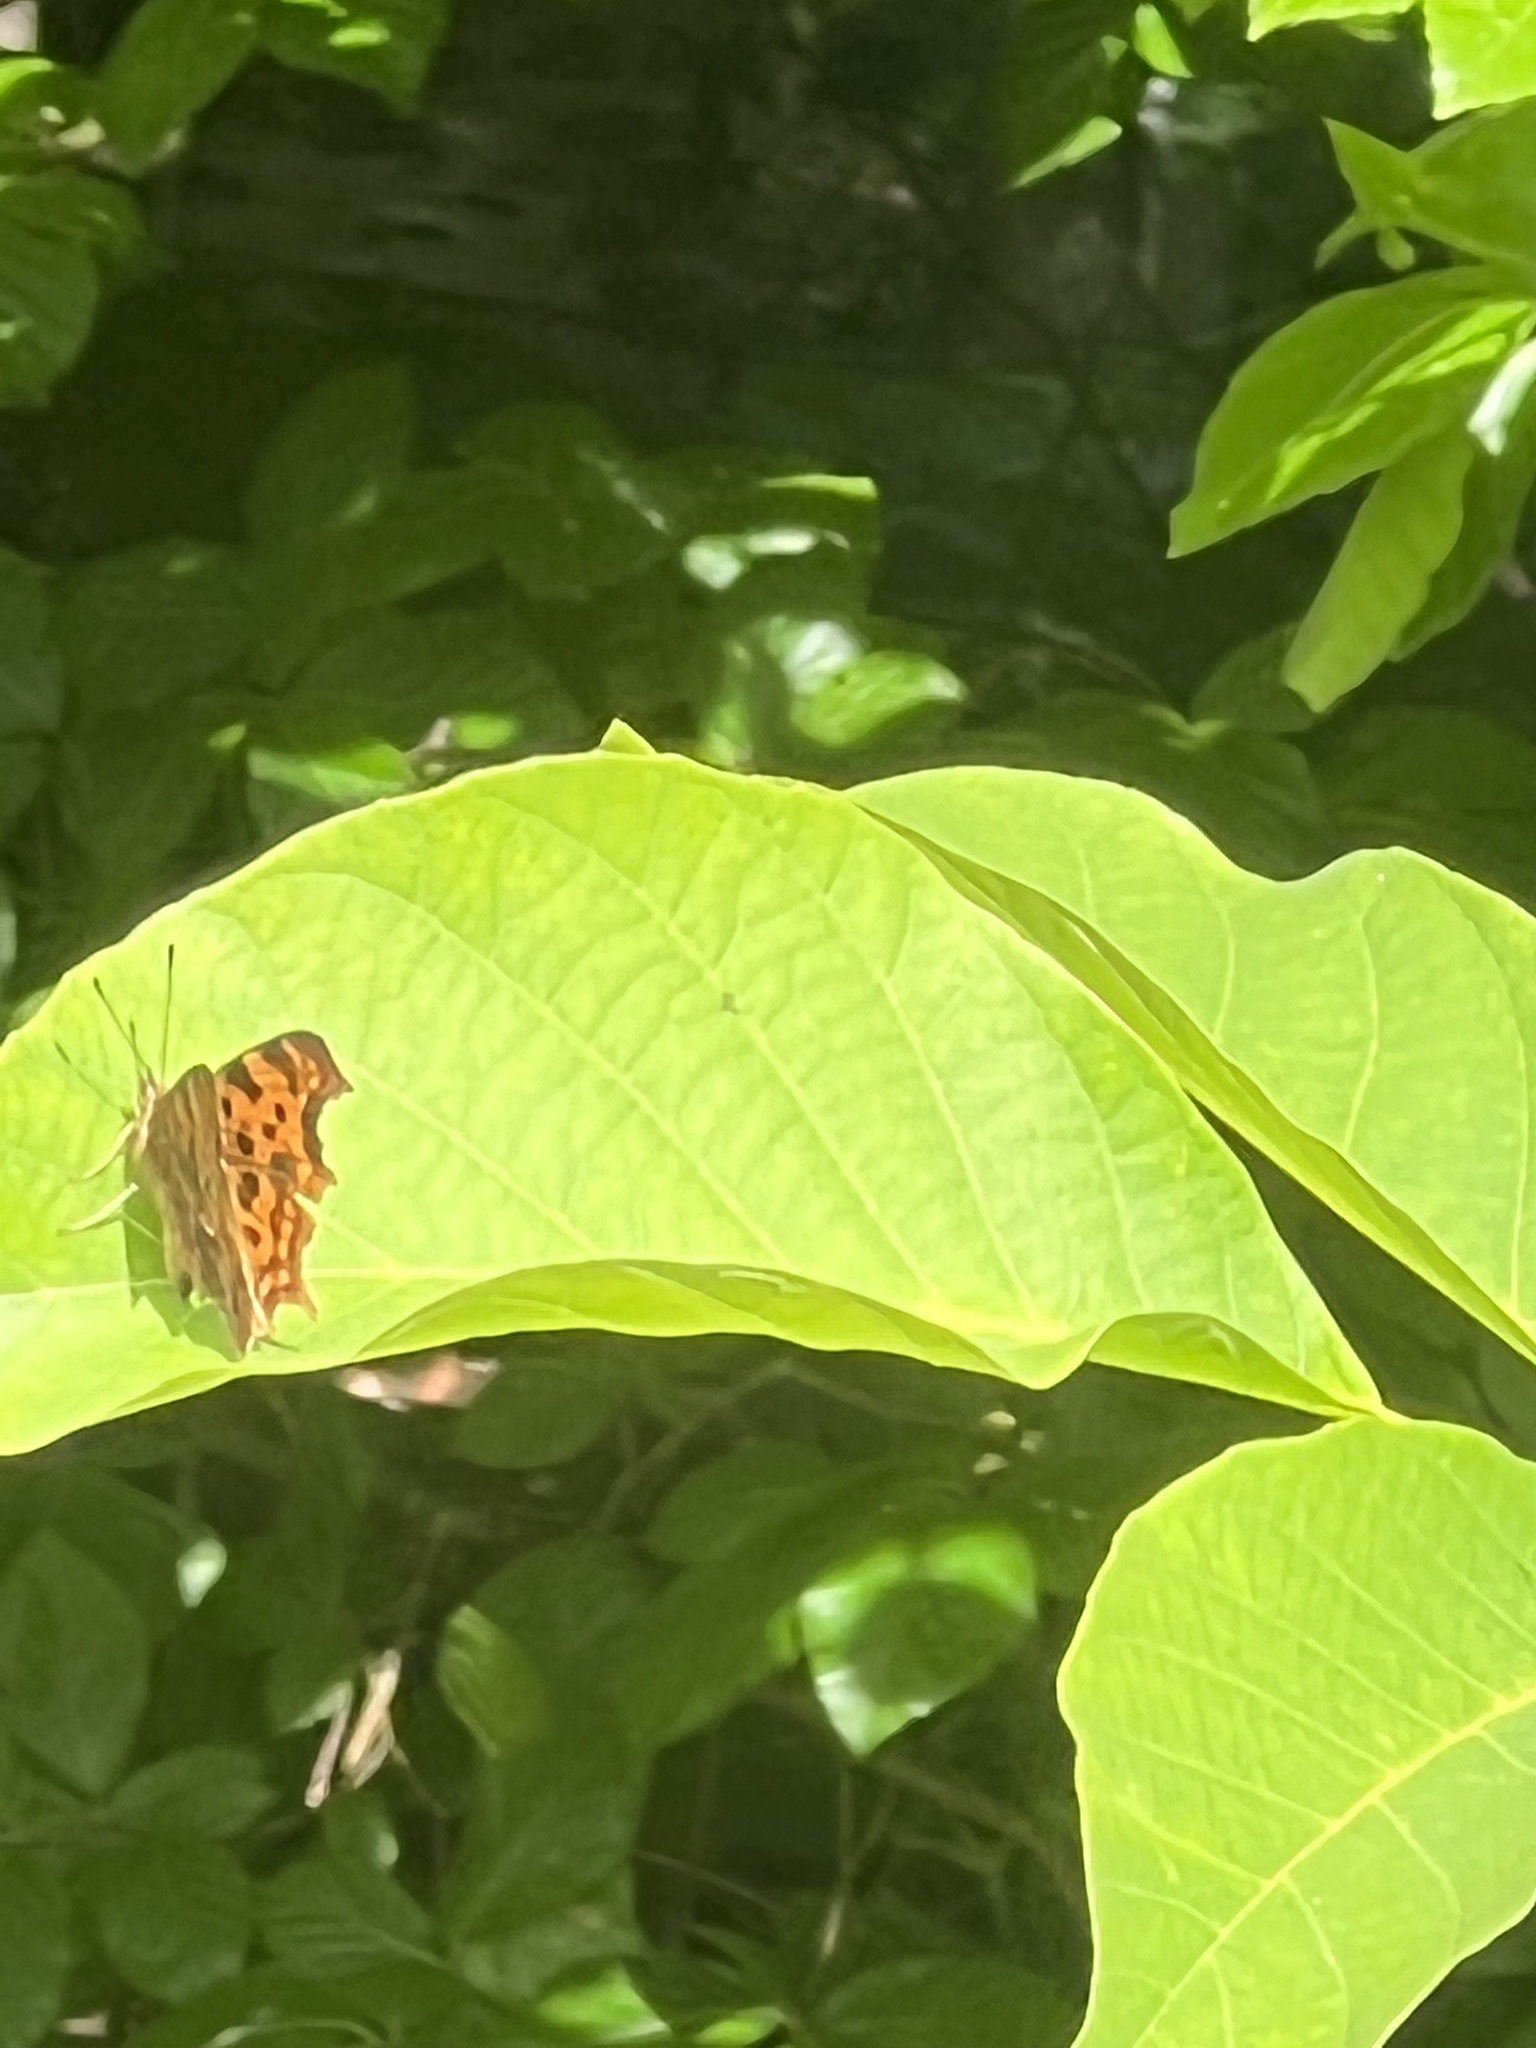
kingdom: Animalia
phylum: Arthropoda
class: Insecta
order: Lepidoptera
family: Nymphalidae
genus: Polygonia
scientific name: Polygonia c-album
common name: Comma
